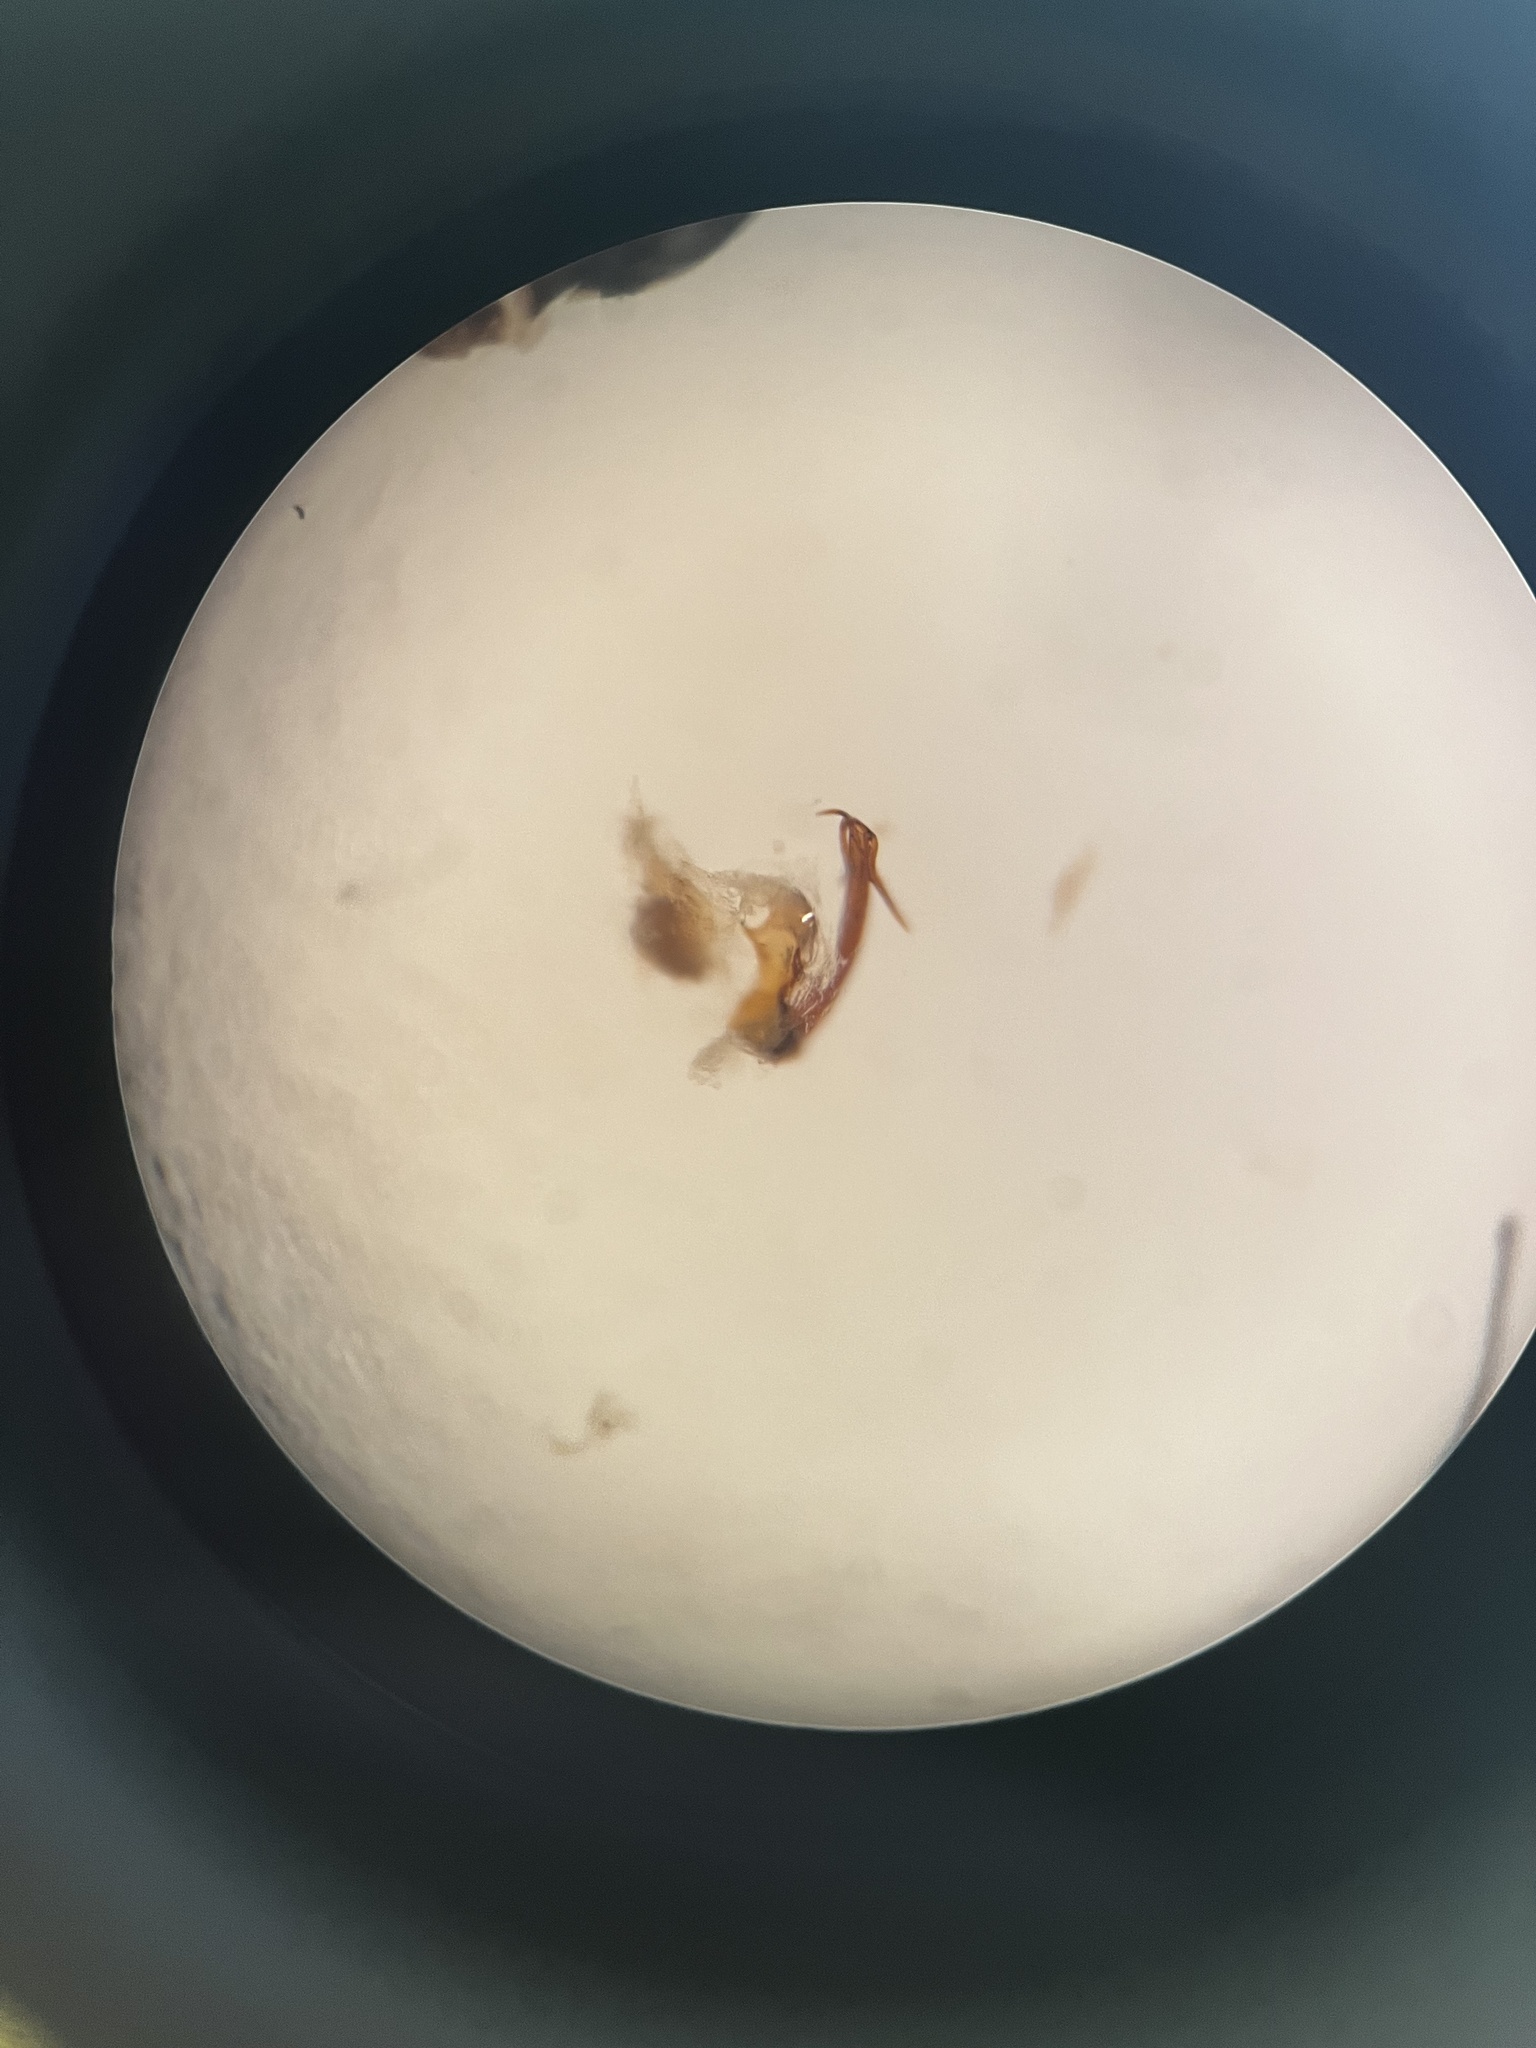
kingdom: Animalia
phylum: Arthropoda
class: Insecta
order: Hemiptera
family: Cicadellidae
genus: Lamprotettix
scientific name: Lamprotettix nitidulus
